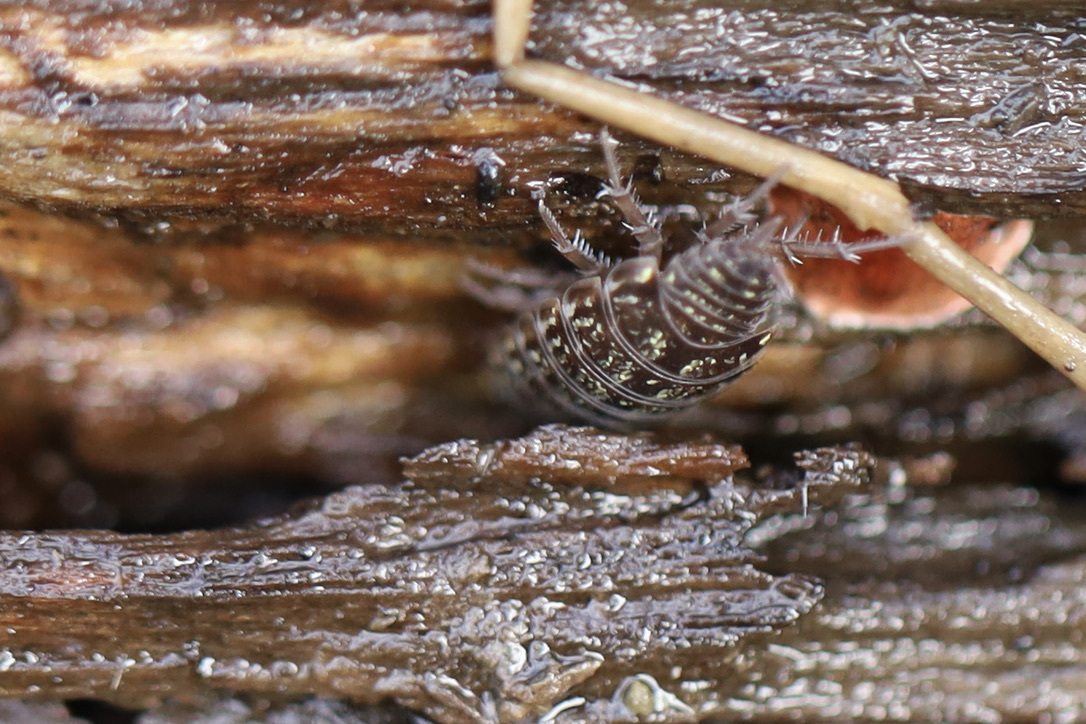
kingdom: Animalia
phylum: Arthropoda
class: Malacostraca
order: Isopoda
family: Philosciidae
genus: Philoscia
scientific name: Philoscia muscorum
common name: Common striped woodlouse
